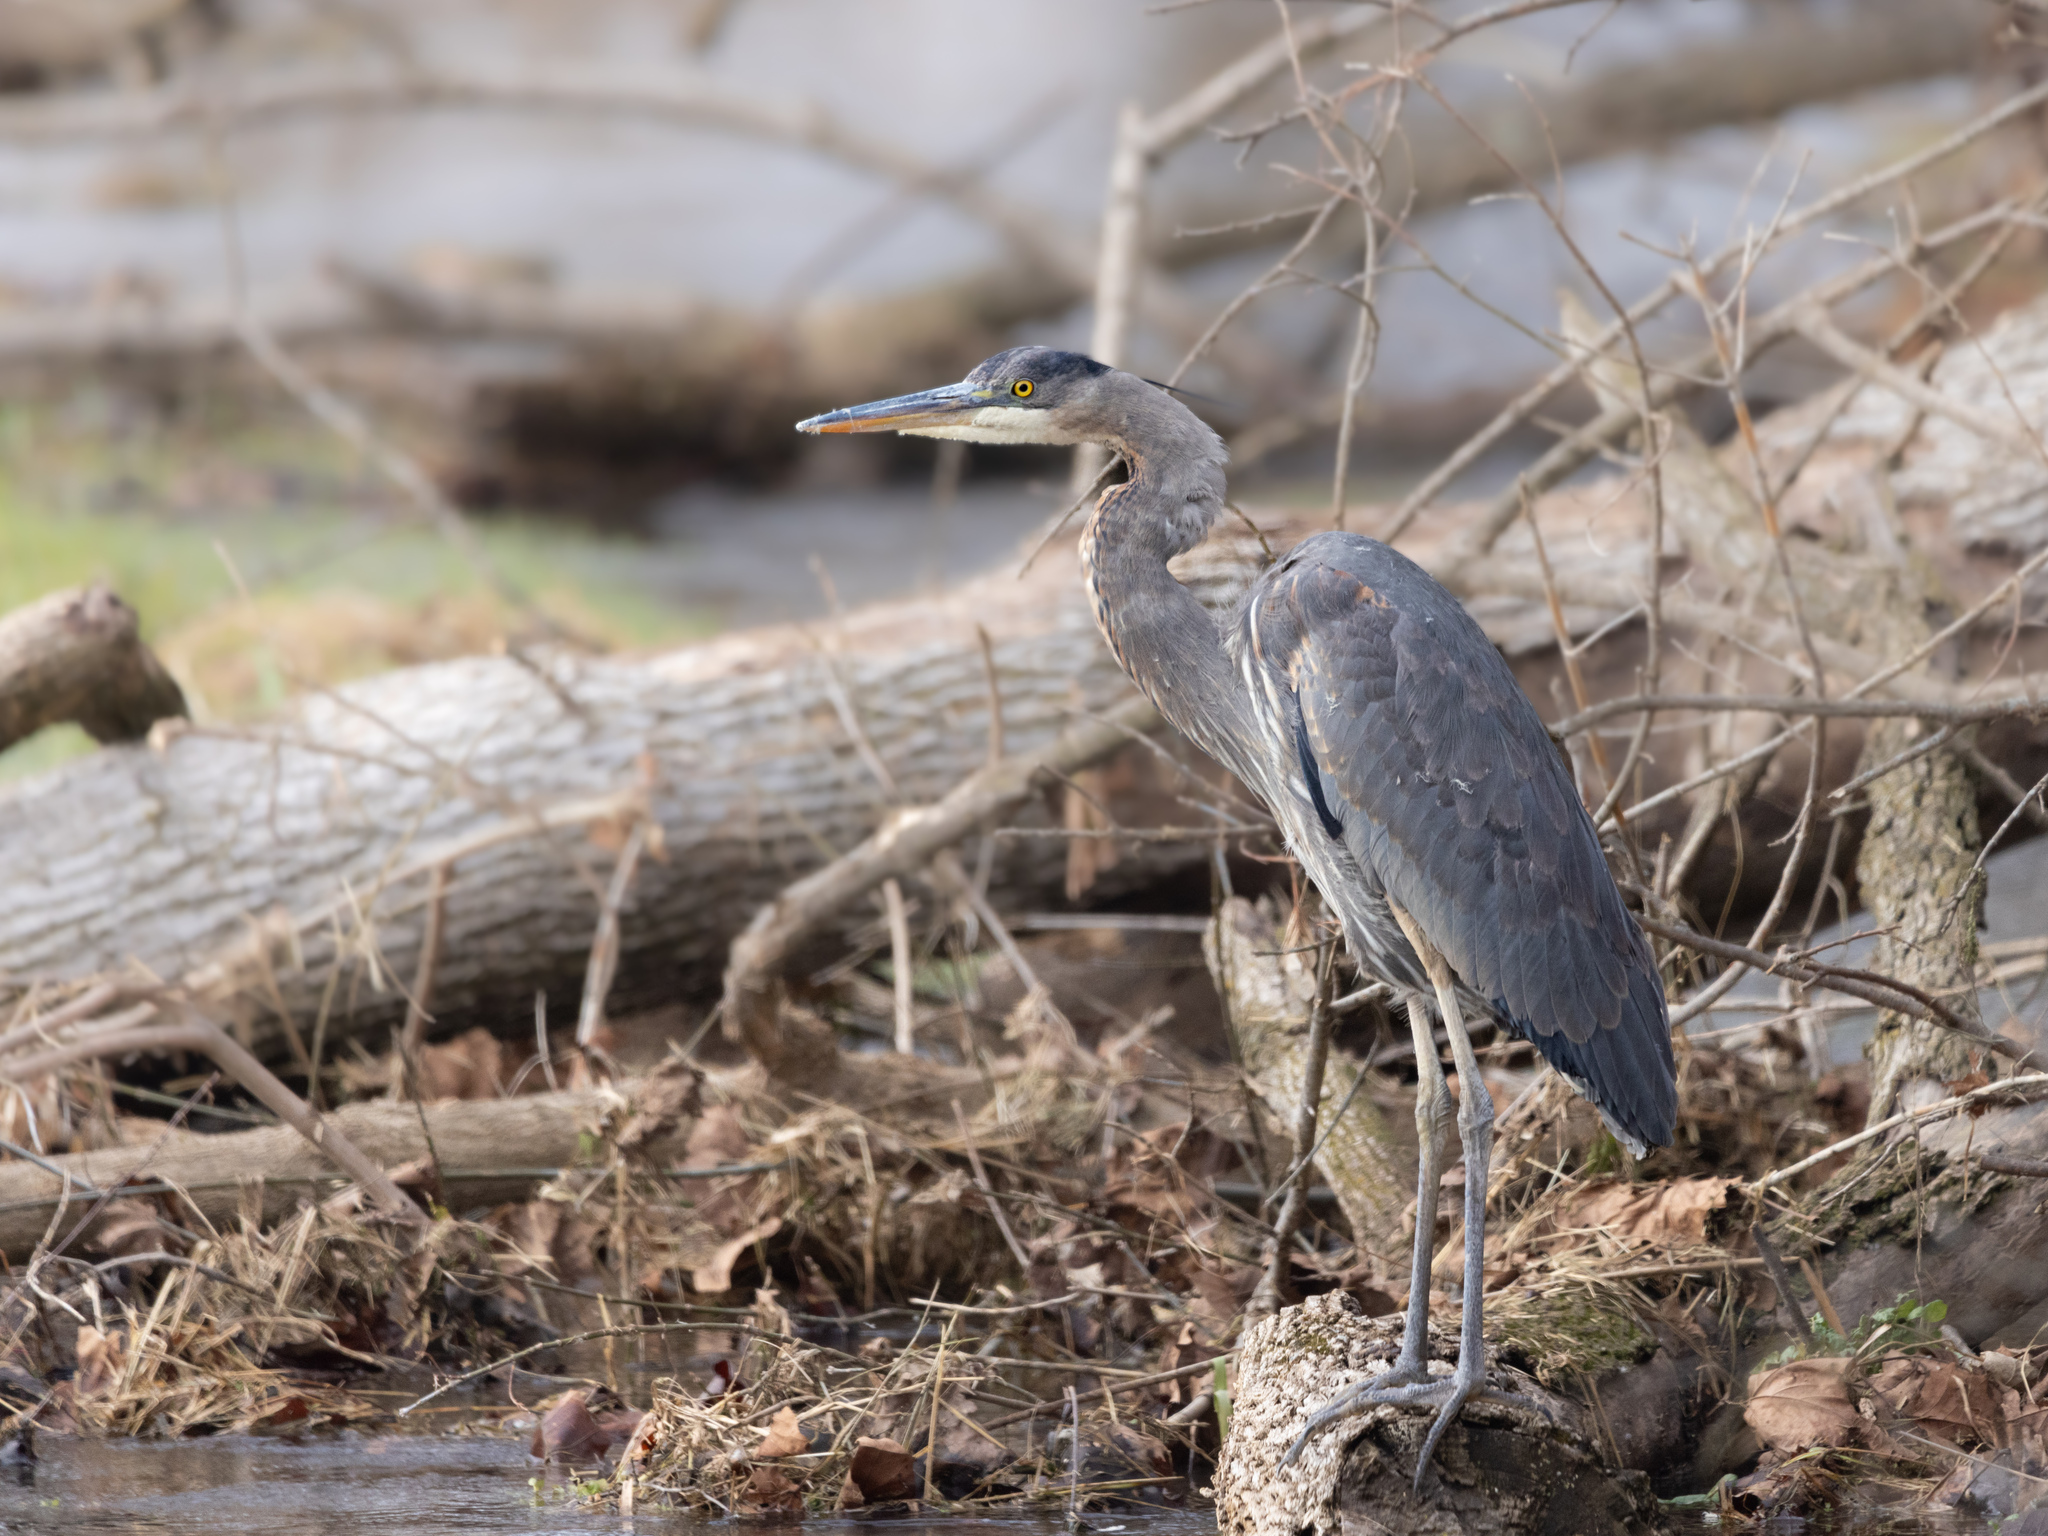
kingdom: Animalia
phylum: Chordata
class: Aves
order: Pelecaniformes
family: Ardeidae
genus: Ardea
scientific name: Ardea herodias
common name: Great blue heron
